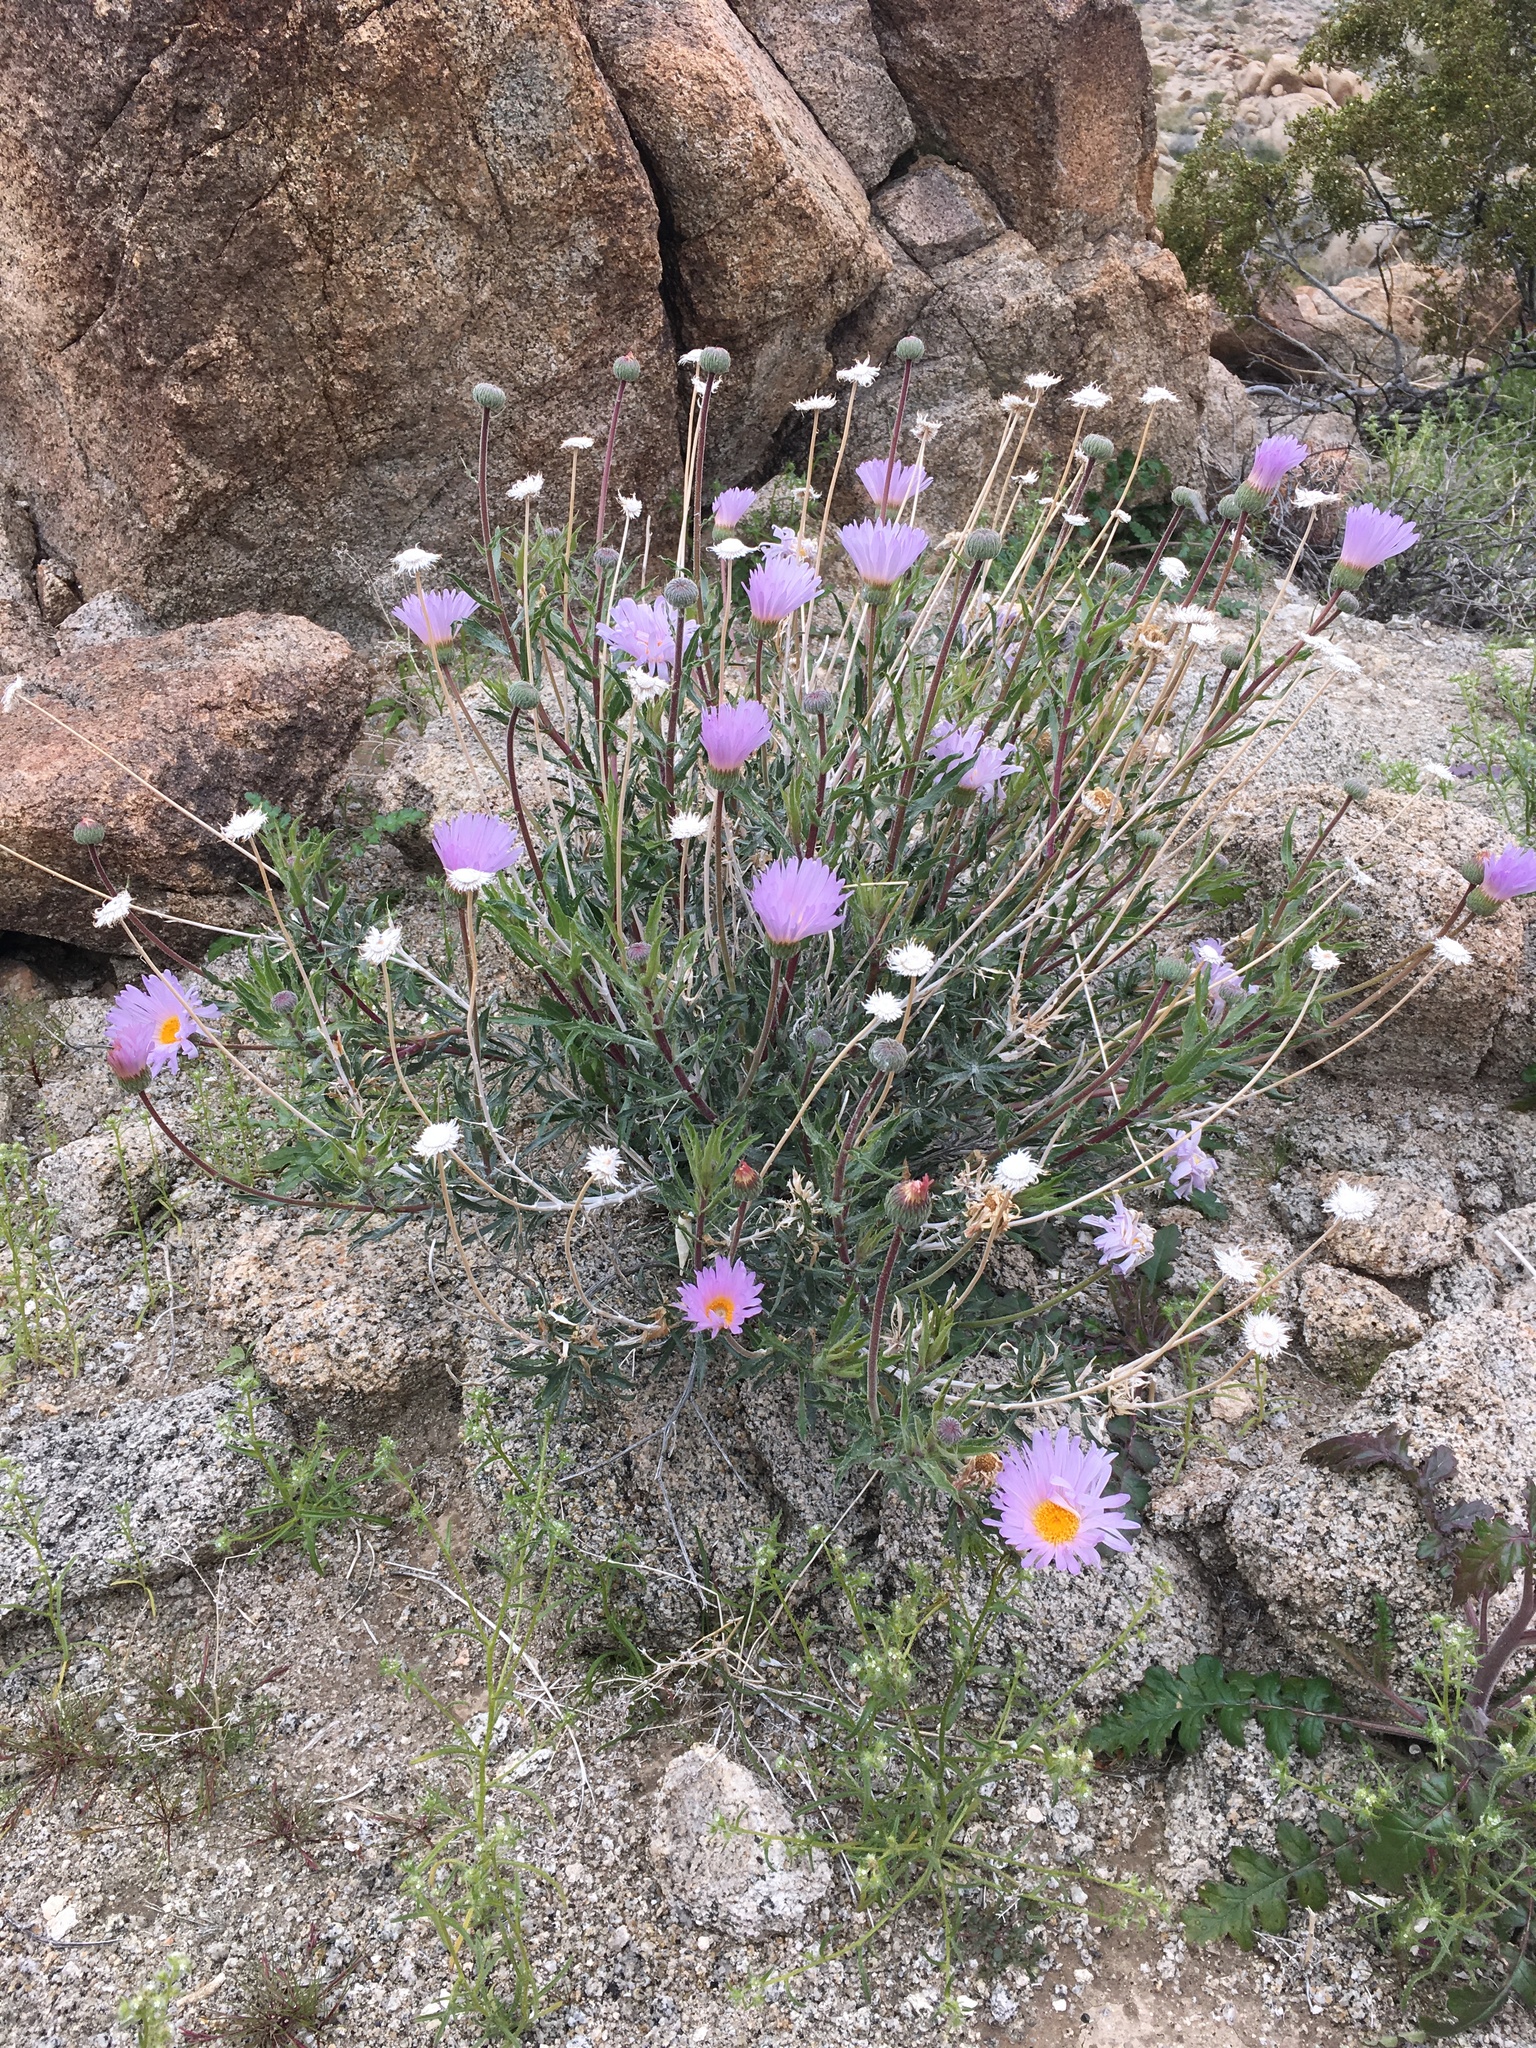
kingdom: Plantae
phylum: Tracheophyta
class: Magnoliopsida
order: Asterales
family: Asteraceae
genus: Xylorhiza
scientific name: Xylorhiza tortifolia
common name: Hurt-leaf woody-aster
